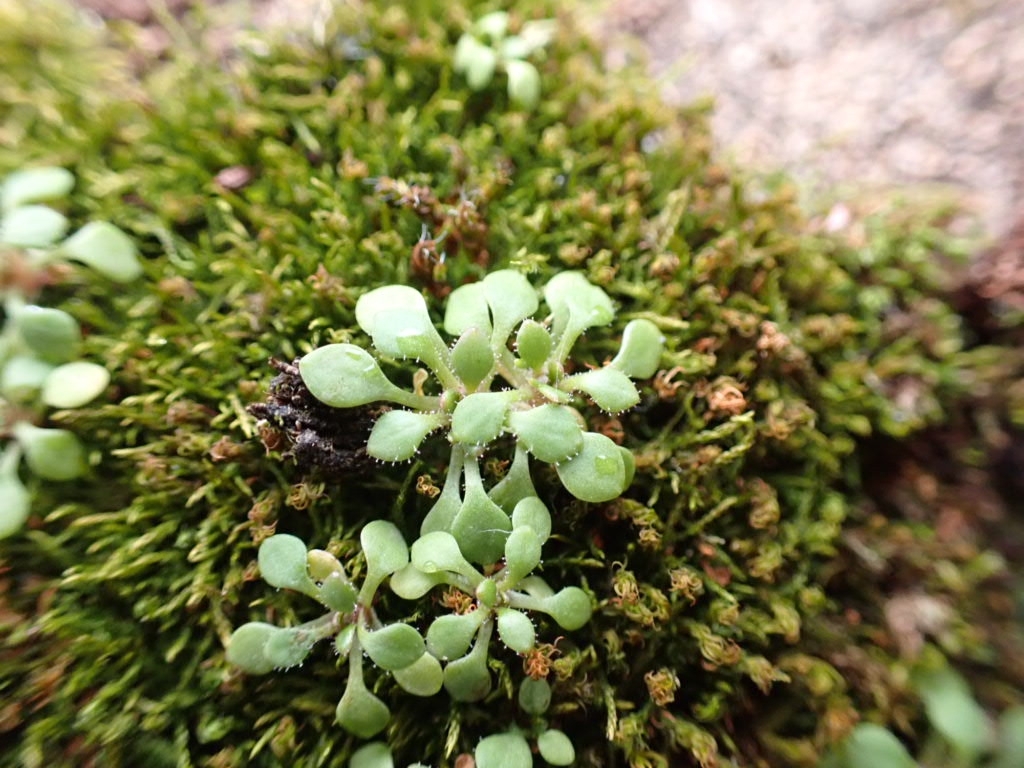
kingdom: Plantae
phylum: Tracheophyta
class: Magnoliopsida
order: Saxifragales
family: Saxifragaceae
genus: Saxifraga
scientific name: Saxifraga tridactylites
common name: Rue-leaved saxifrage
